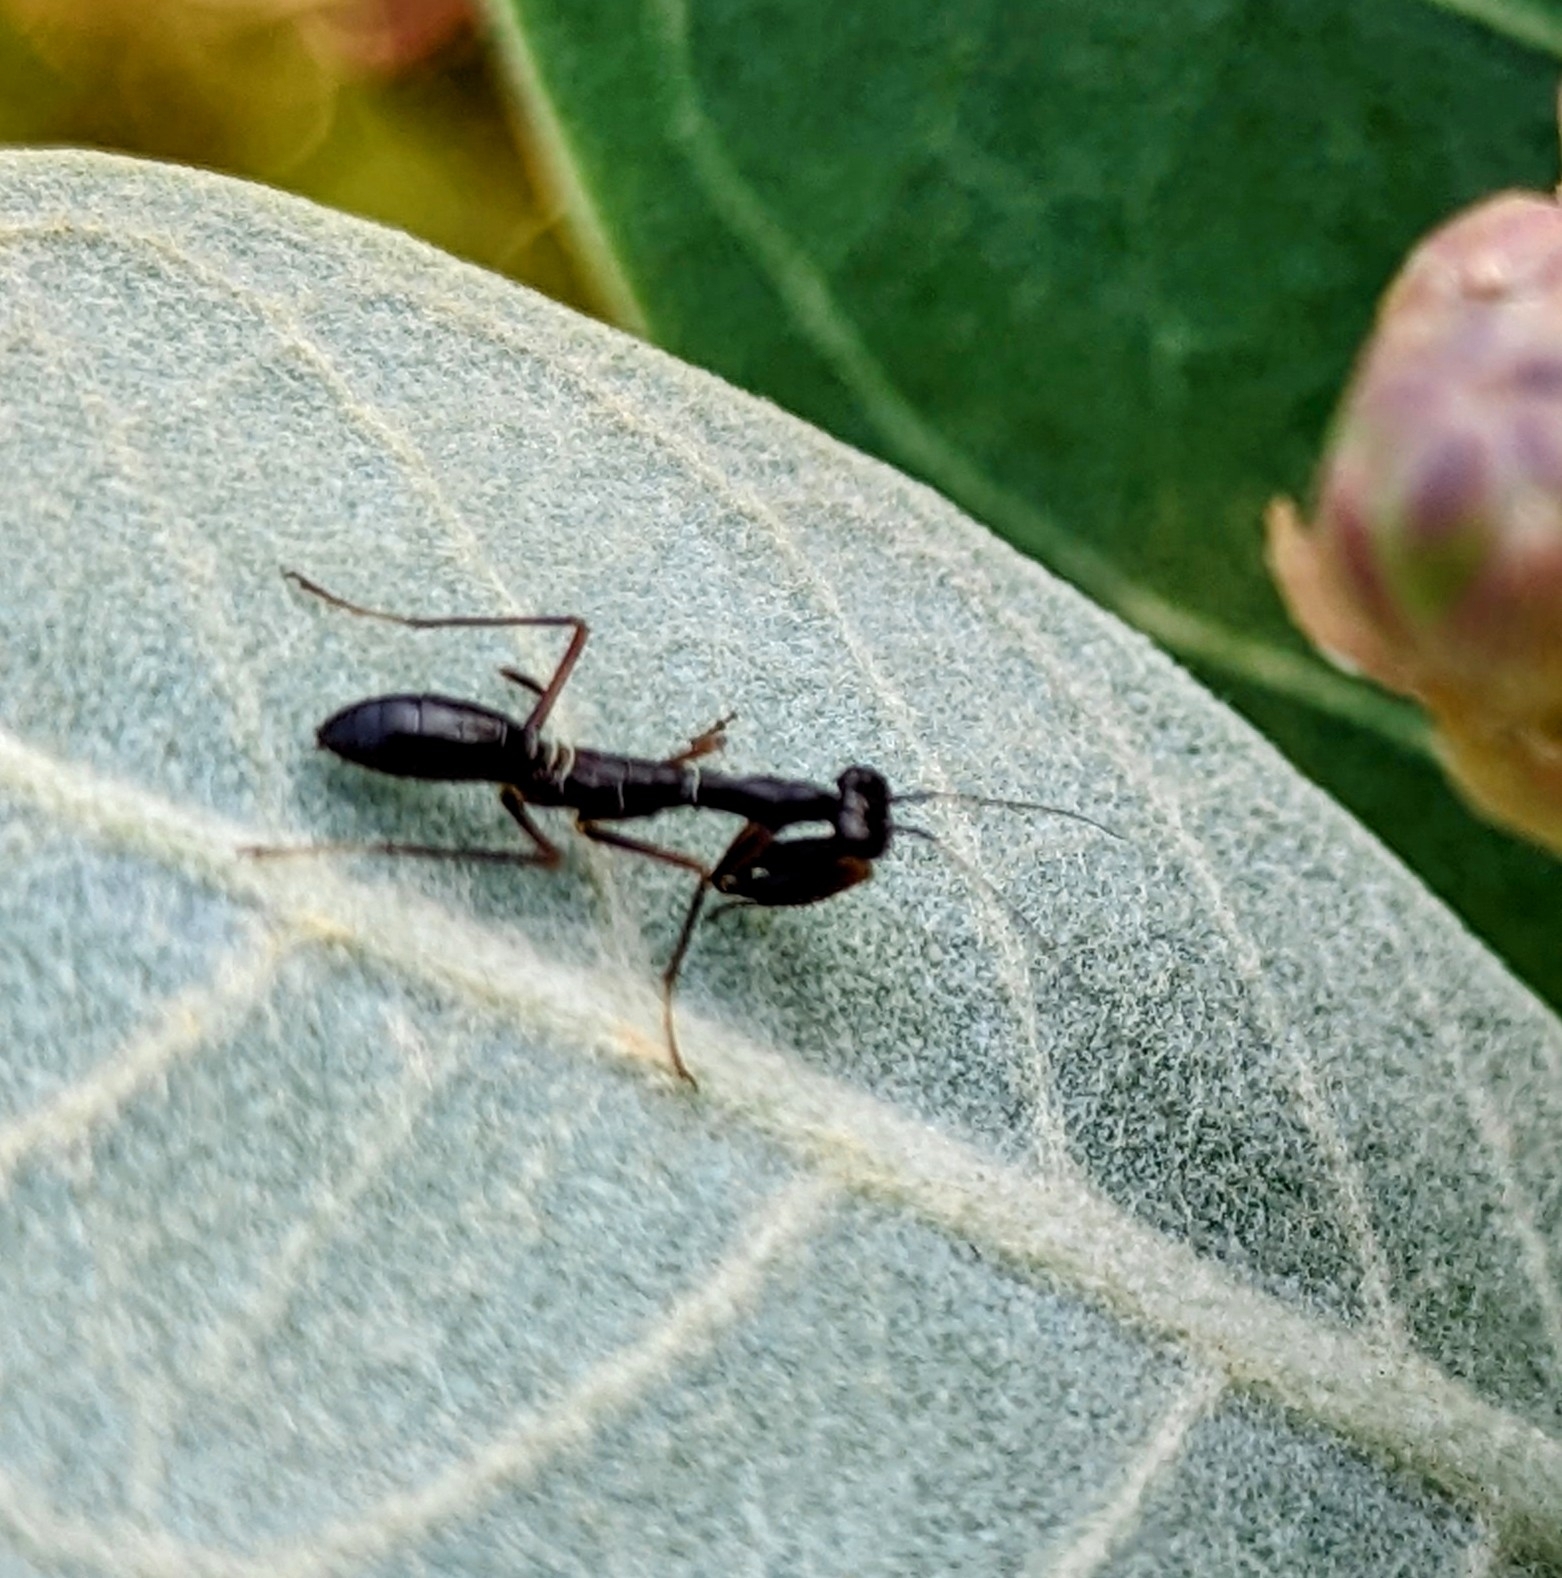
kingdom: Animalia
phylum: Arthropoda
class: Insecta
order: Mantodea
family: Hymenopodidae
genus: Odontomantis
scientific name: Odontomantis planiceps
